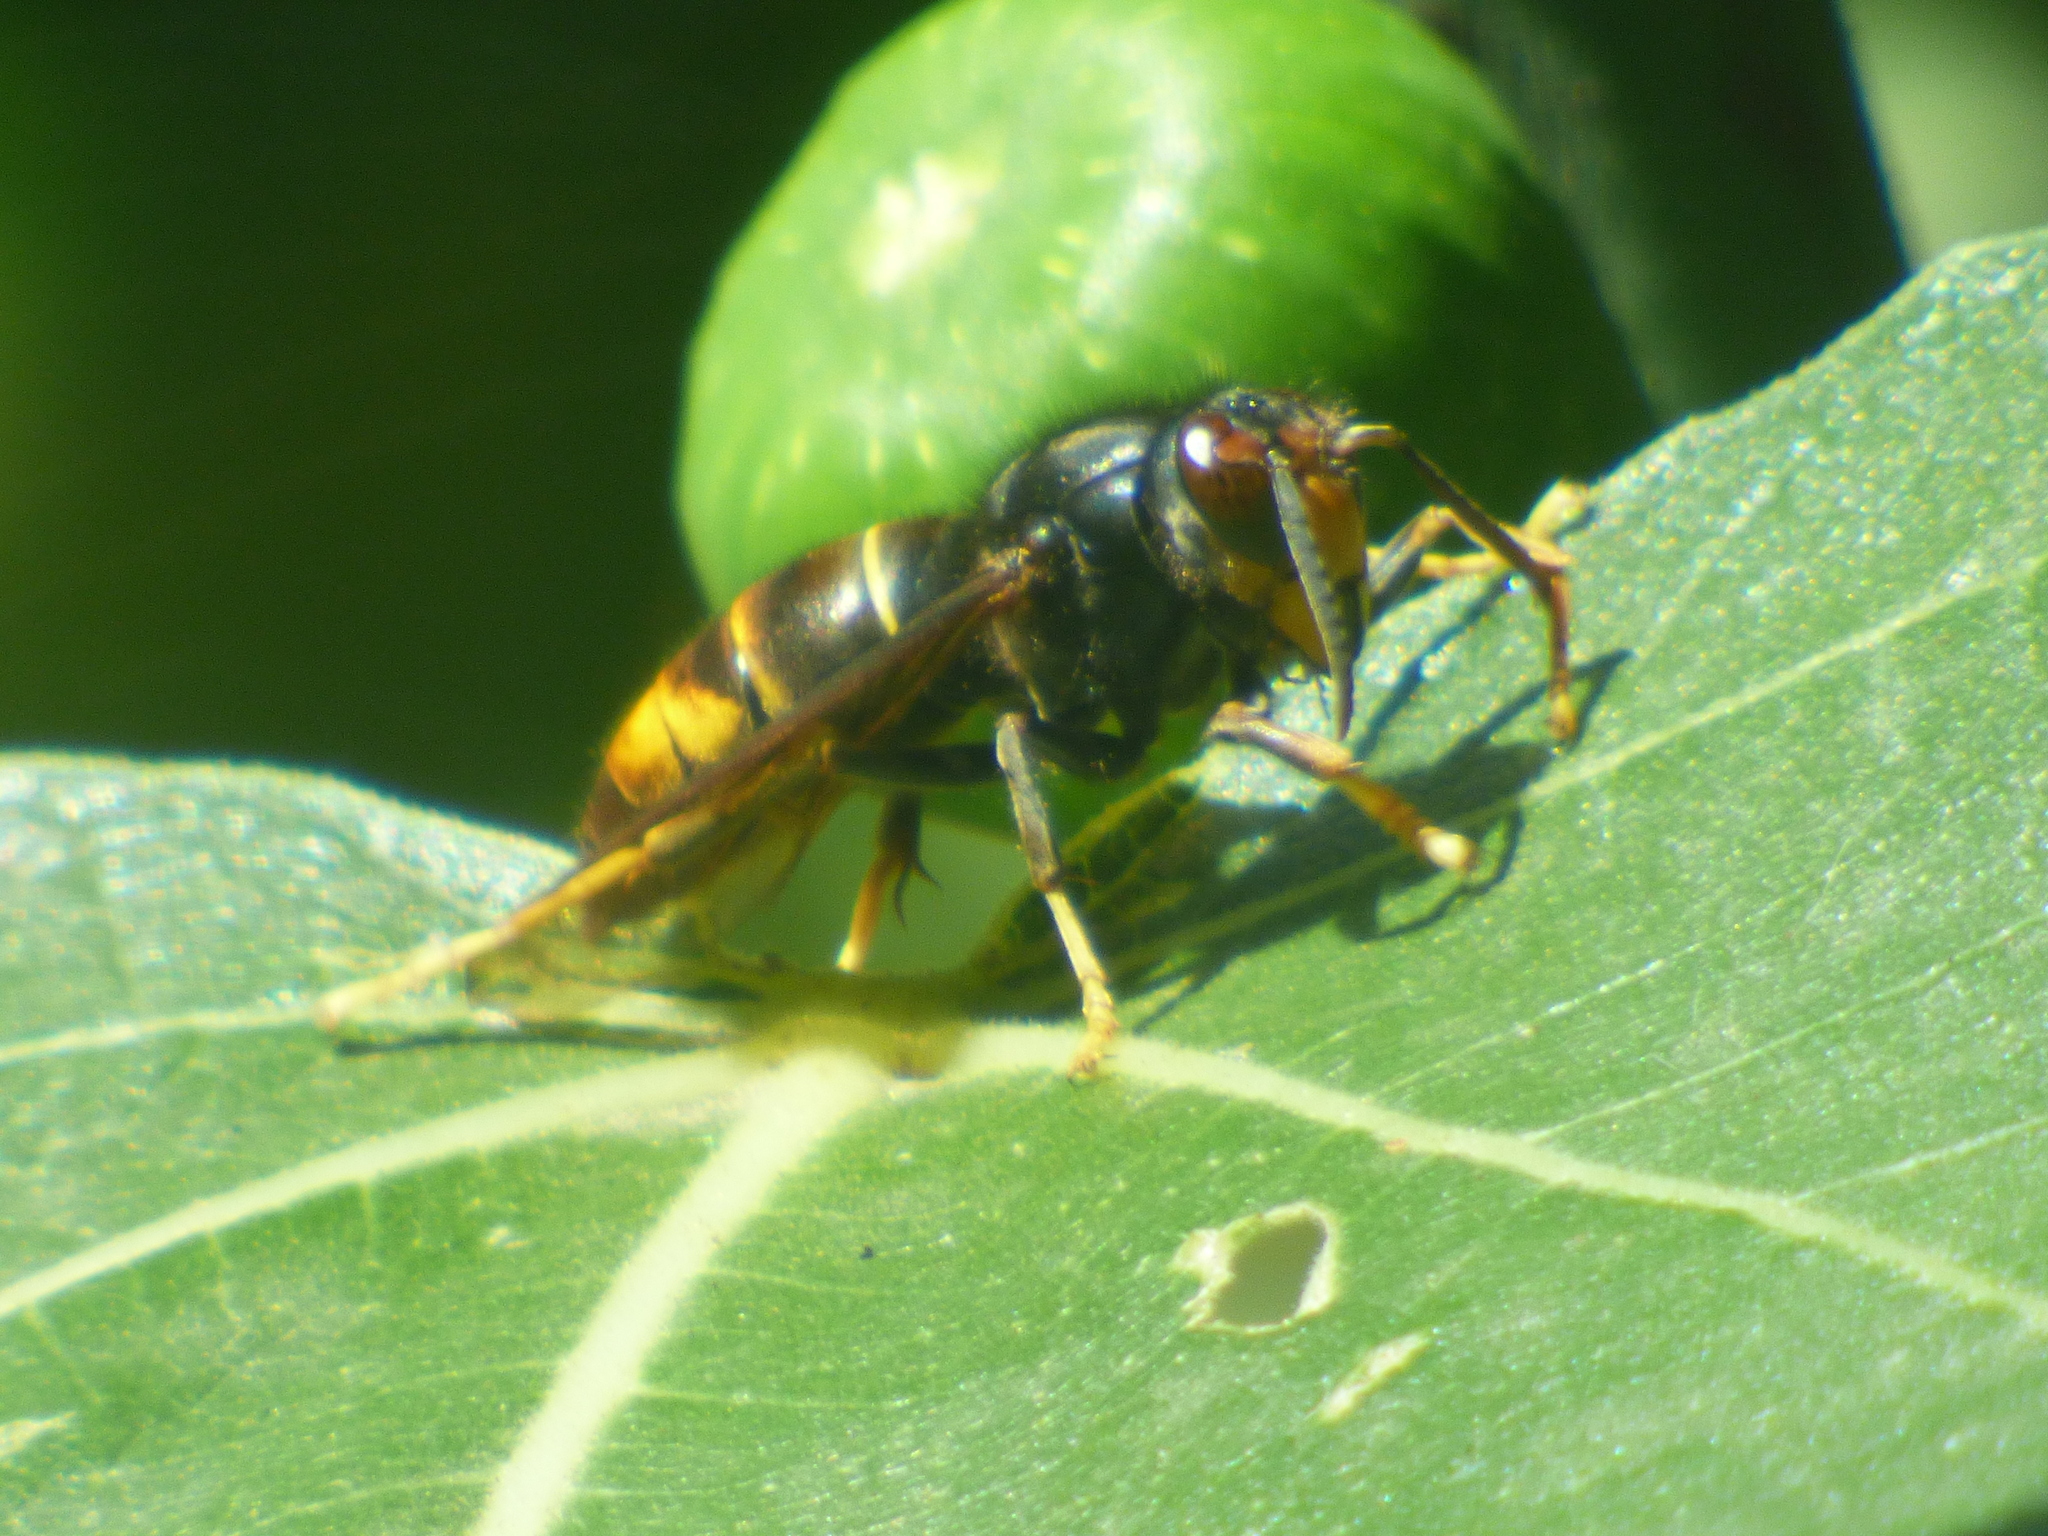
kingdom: Animalia
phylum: Arthropoda
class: Insecta
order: Hymenoptera
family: Vespidae
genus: Vespa
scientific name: Vespa velutina
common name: Asian hornet
